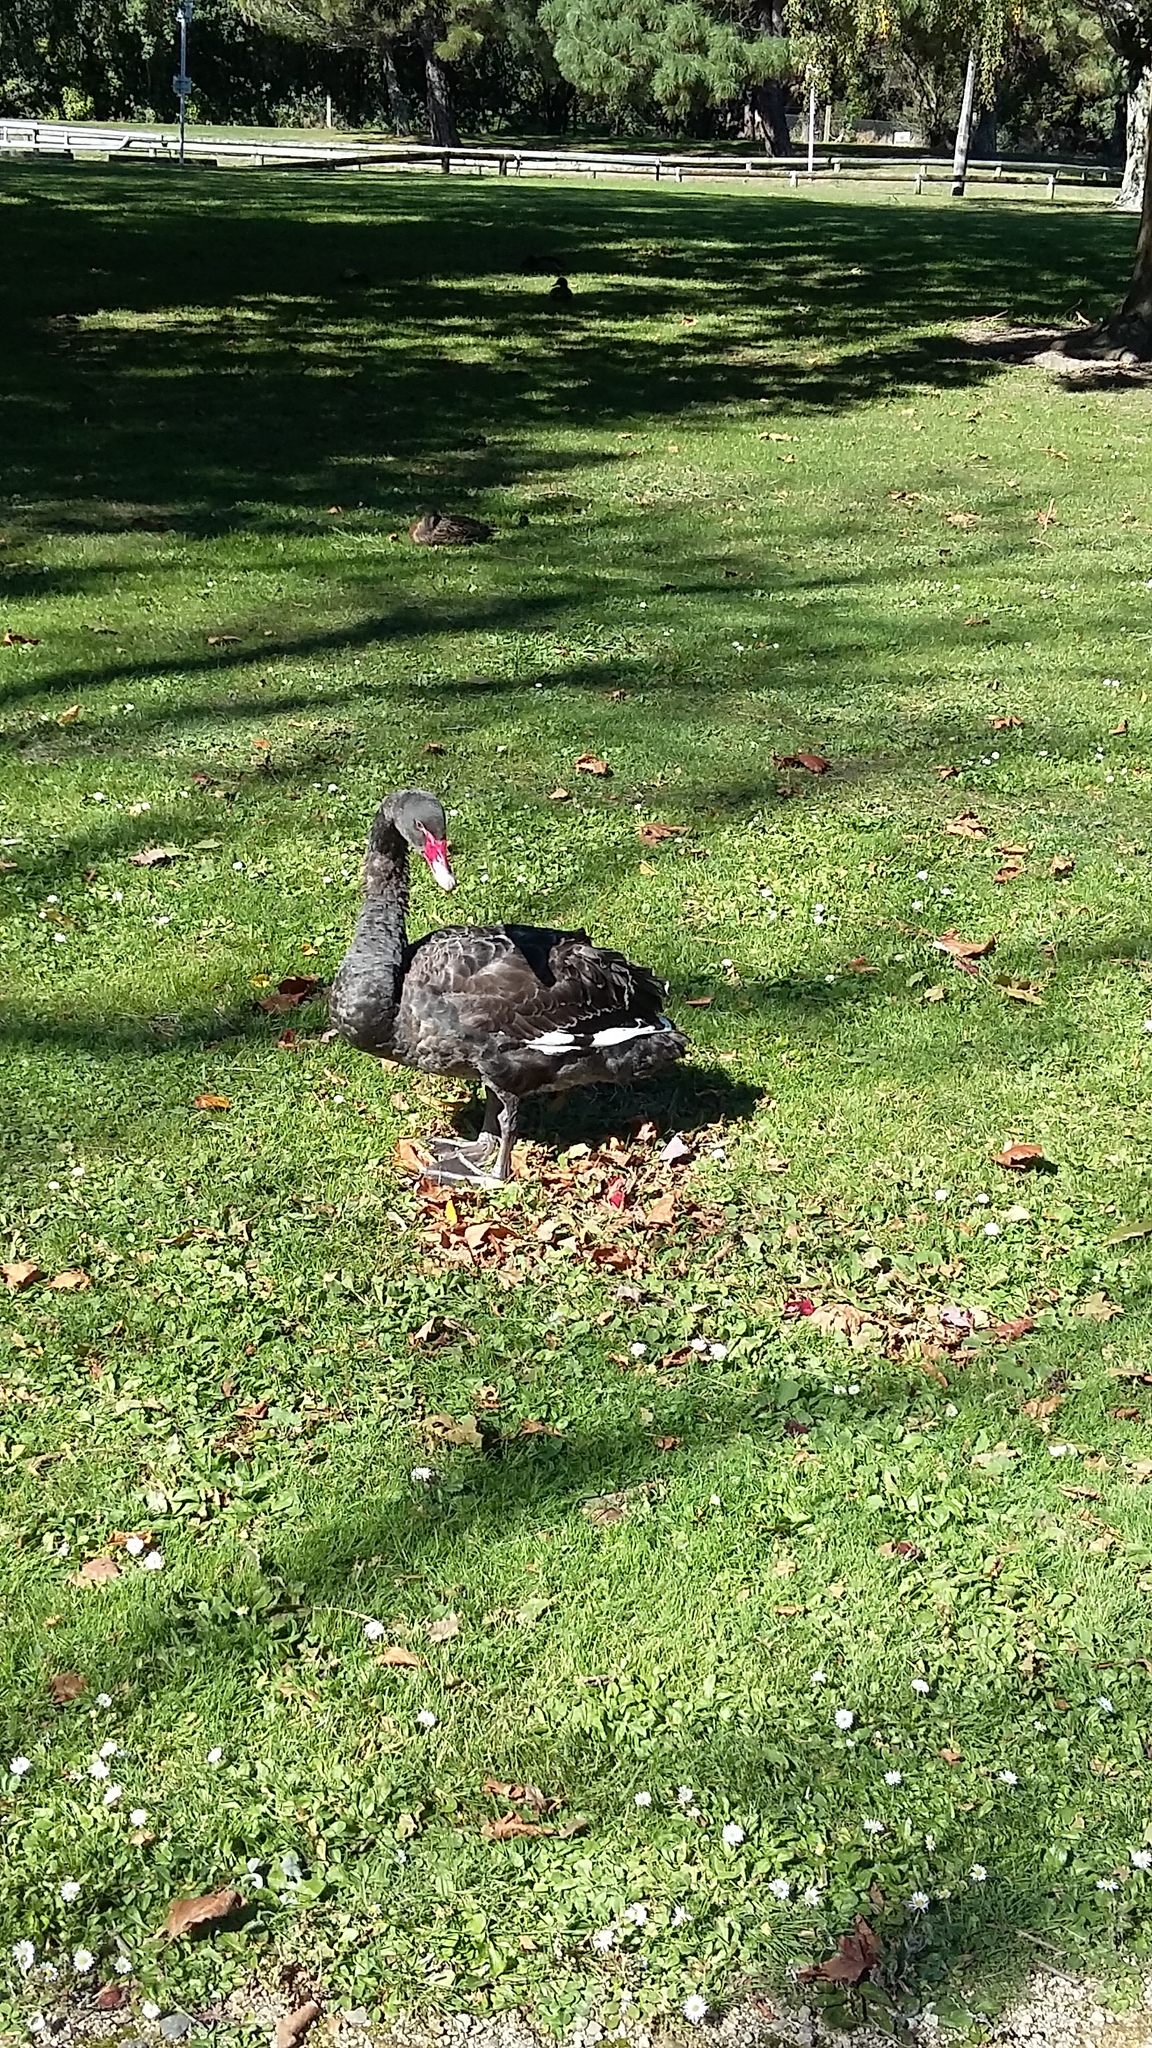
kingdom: Animalia
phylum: Chordata
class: Aves
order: Anseriformes
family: Anatidae
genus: Cygnus
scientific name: Cygnus atratus
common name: Black swan
